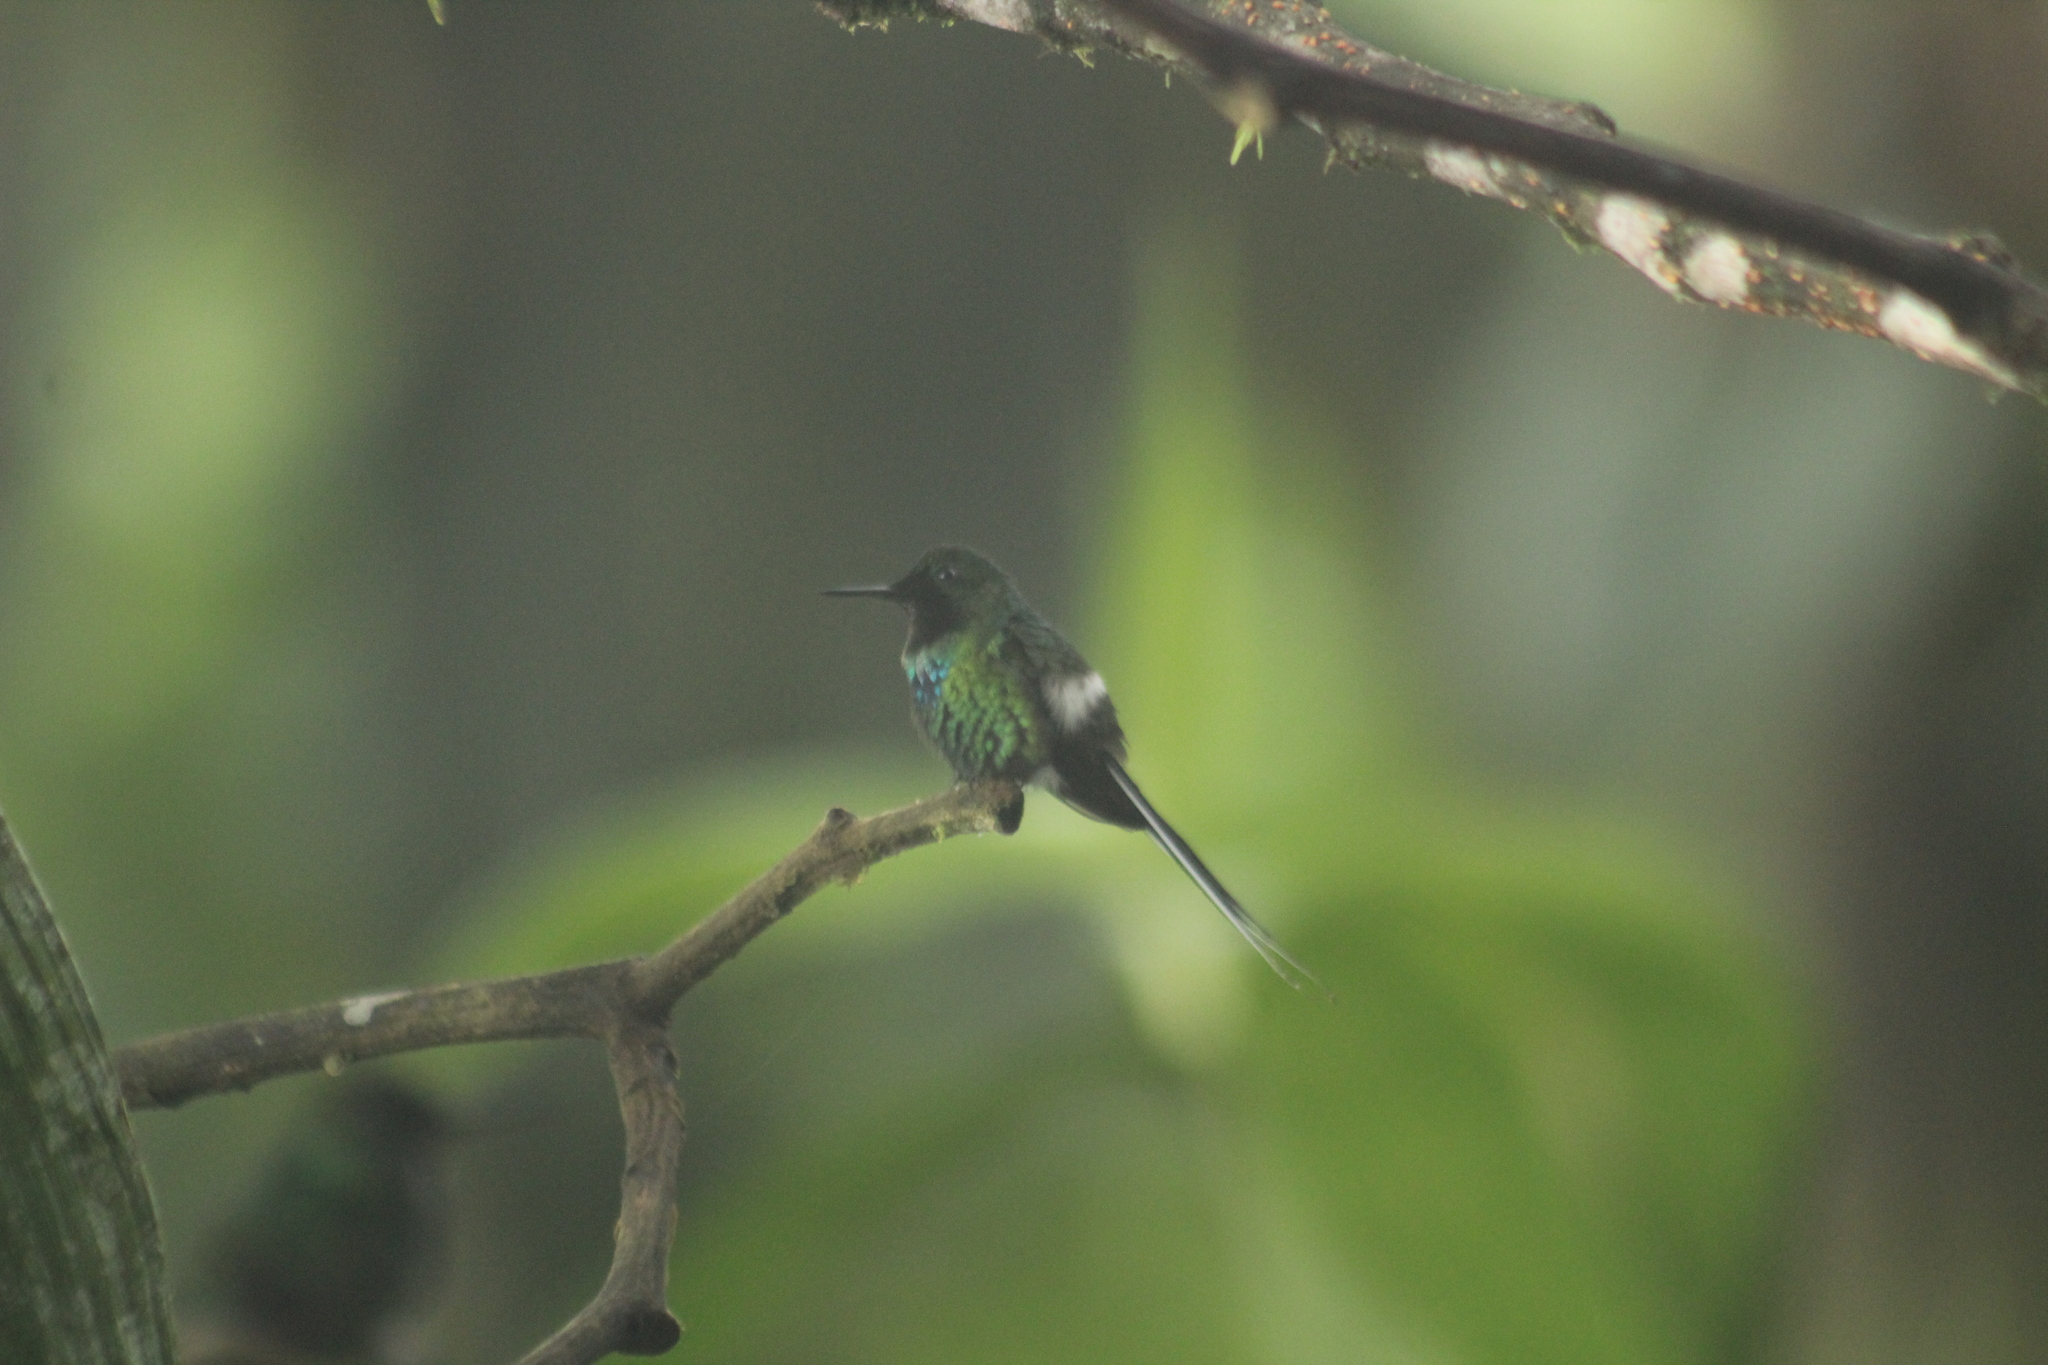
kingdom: Animalia
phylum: Chordata
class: Aves
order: Apodiformes
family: Trochilidae
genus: Discosura
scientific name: Discosura conversii
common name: Green thorntail
